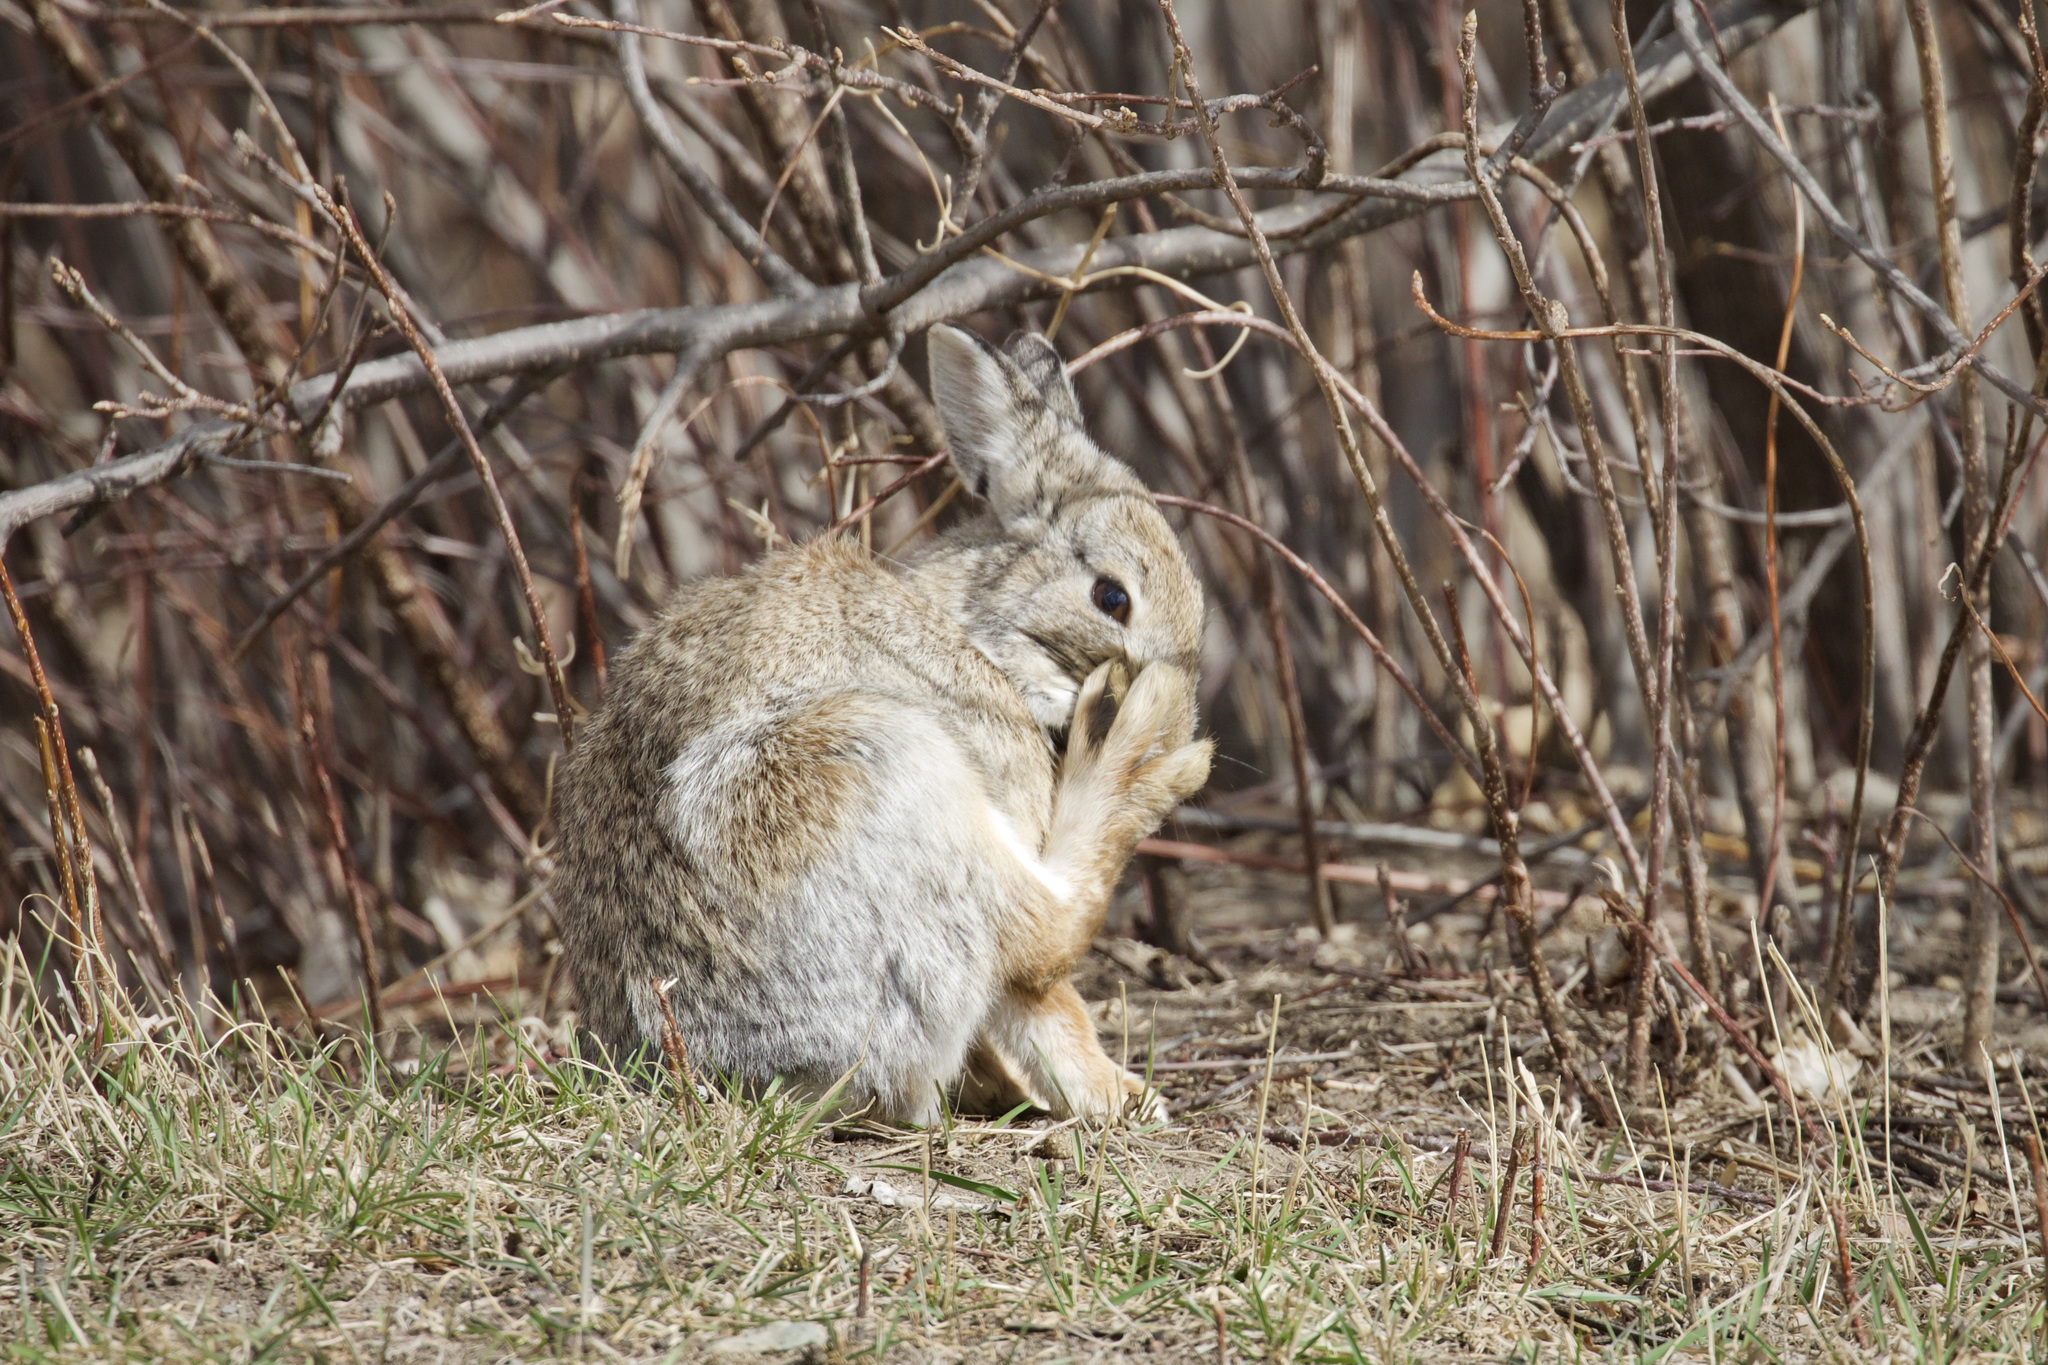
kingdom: Animalia
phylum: Chordata
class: Mammalia
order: Lagomorpha
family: Leporidae
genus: Sylvilagus
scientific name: Sylvilagus nuttallii
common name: Mountain cottontail
